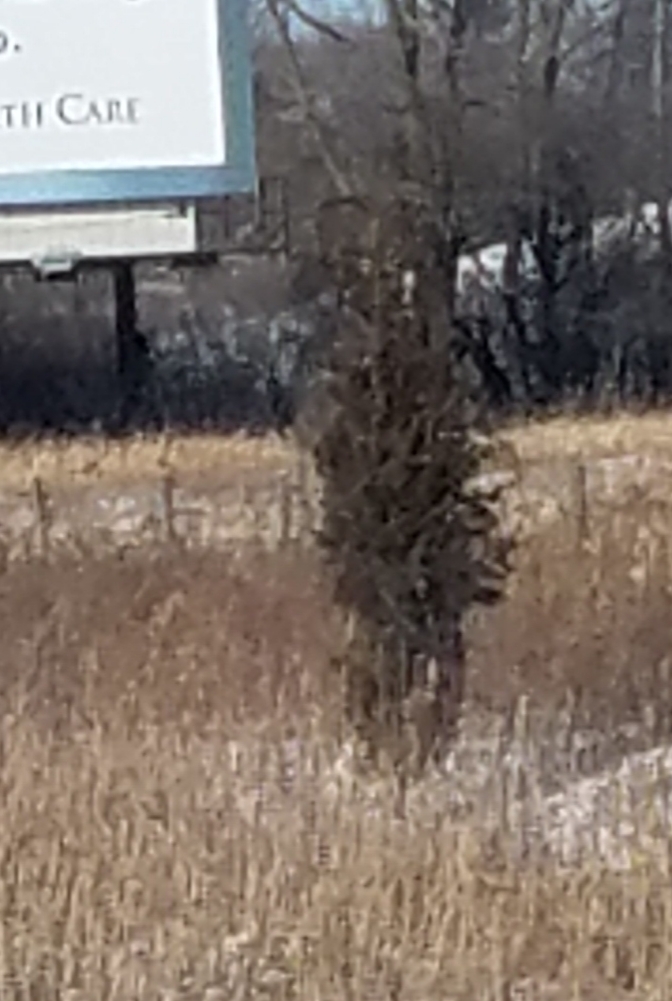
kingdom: Plantae
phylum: Tracheophyta
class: Pinopsida
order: Pinales
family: Cupressaceae
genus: Juniperus
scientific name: Juniperus virginiana
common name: Red juniper
